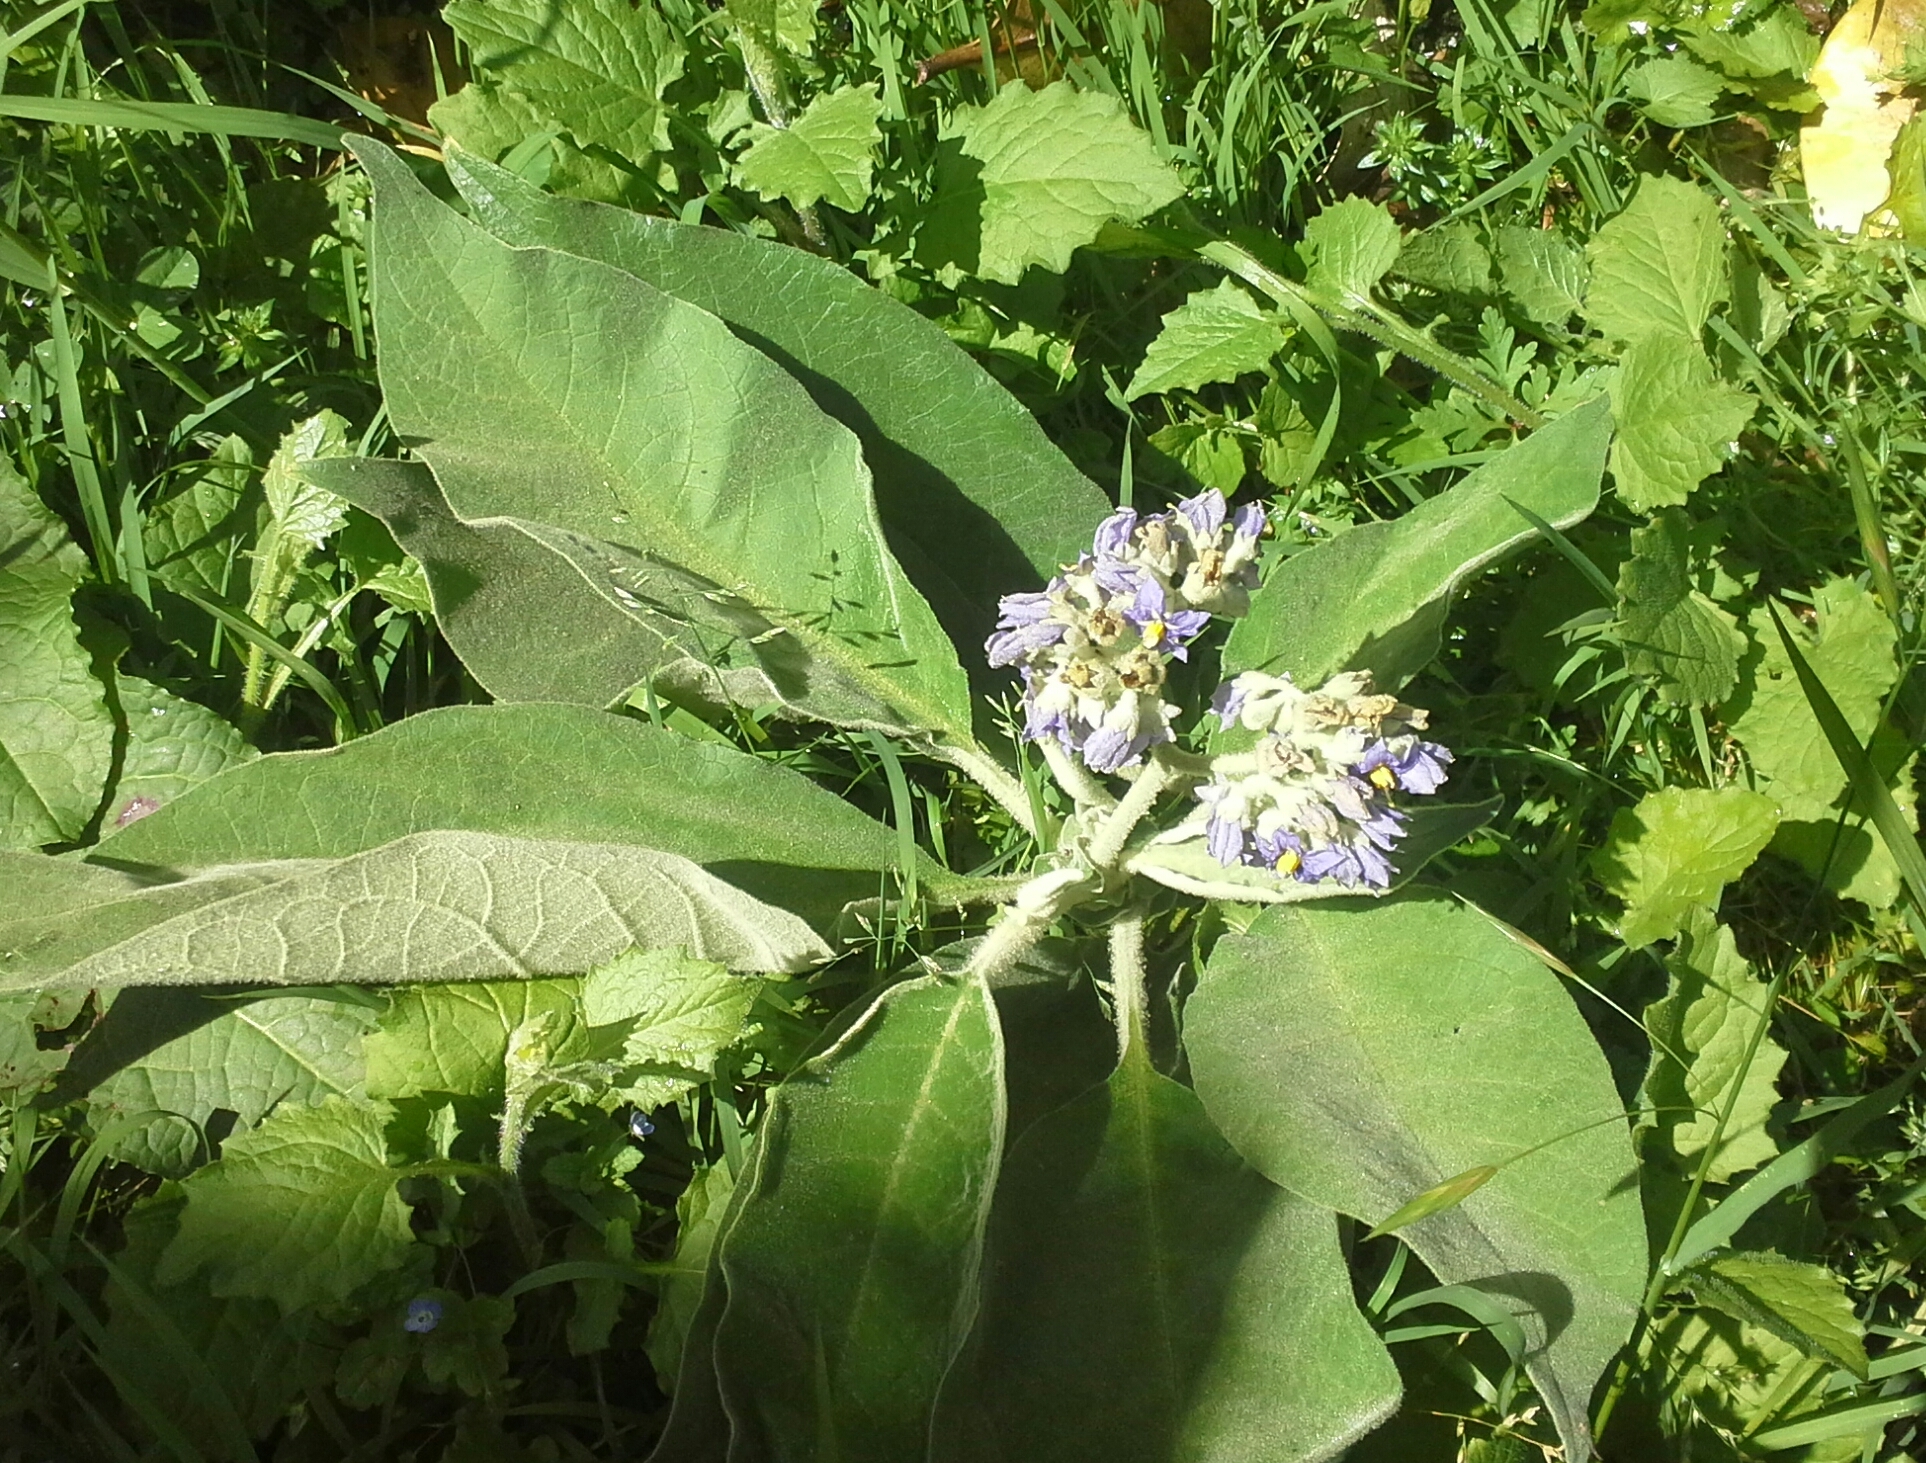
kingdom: Plantae
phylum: Tracheophyta
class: Magnoliopsida
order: Solanales
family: Solanaceae
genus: Solanum
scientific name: Solanum mauritianum
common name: Earleaf nightshade
